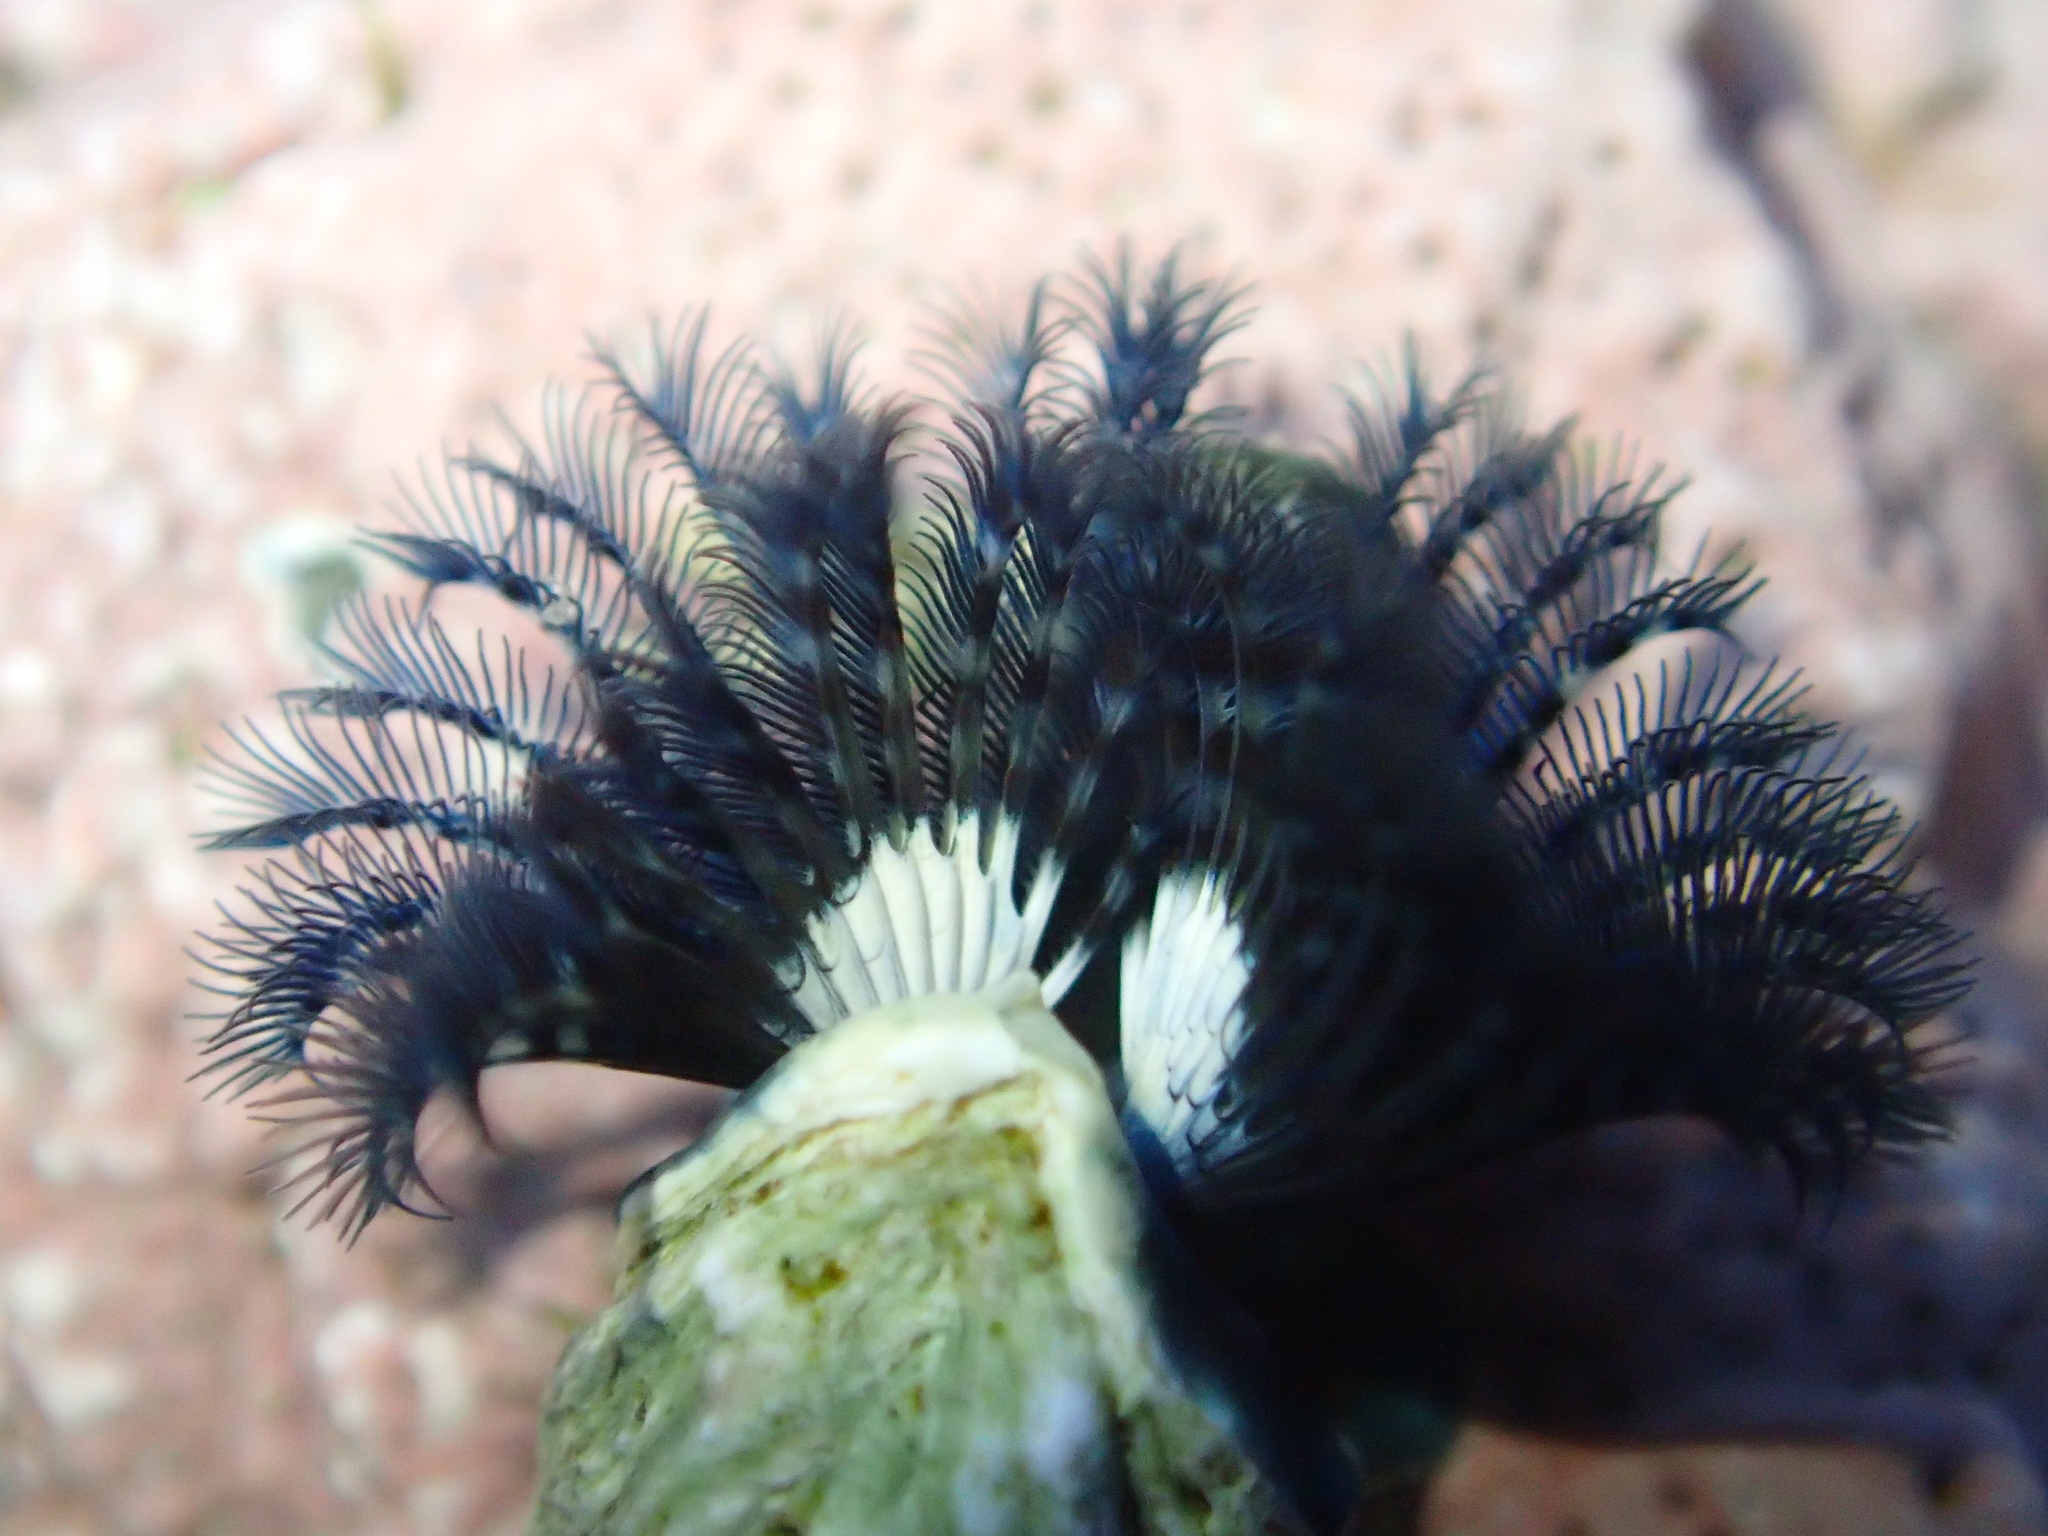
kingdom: Animalia
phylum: Annelida
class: Polychaeta
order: Sabellida
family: Serpulidae
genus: Spirobranchus
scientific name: Spirobranchus cariniferus
